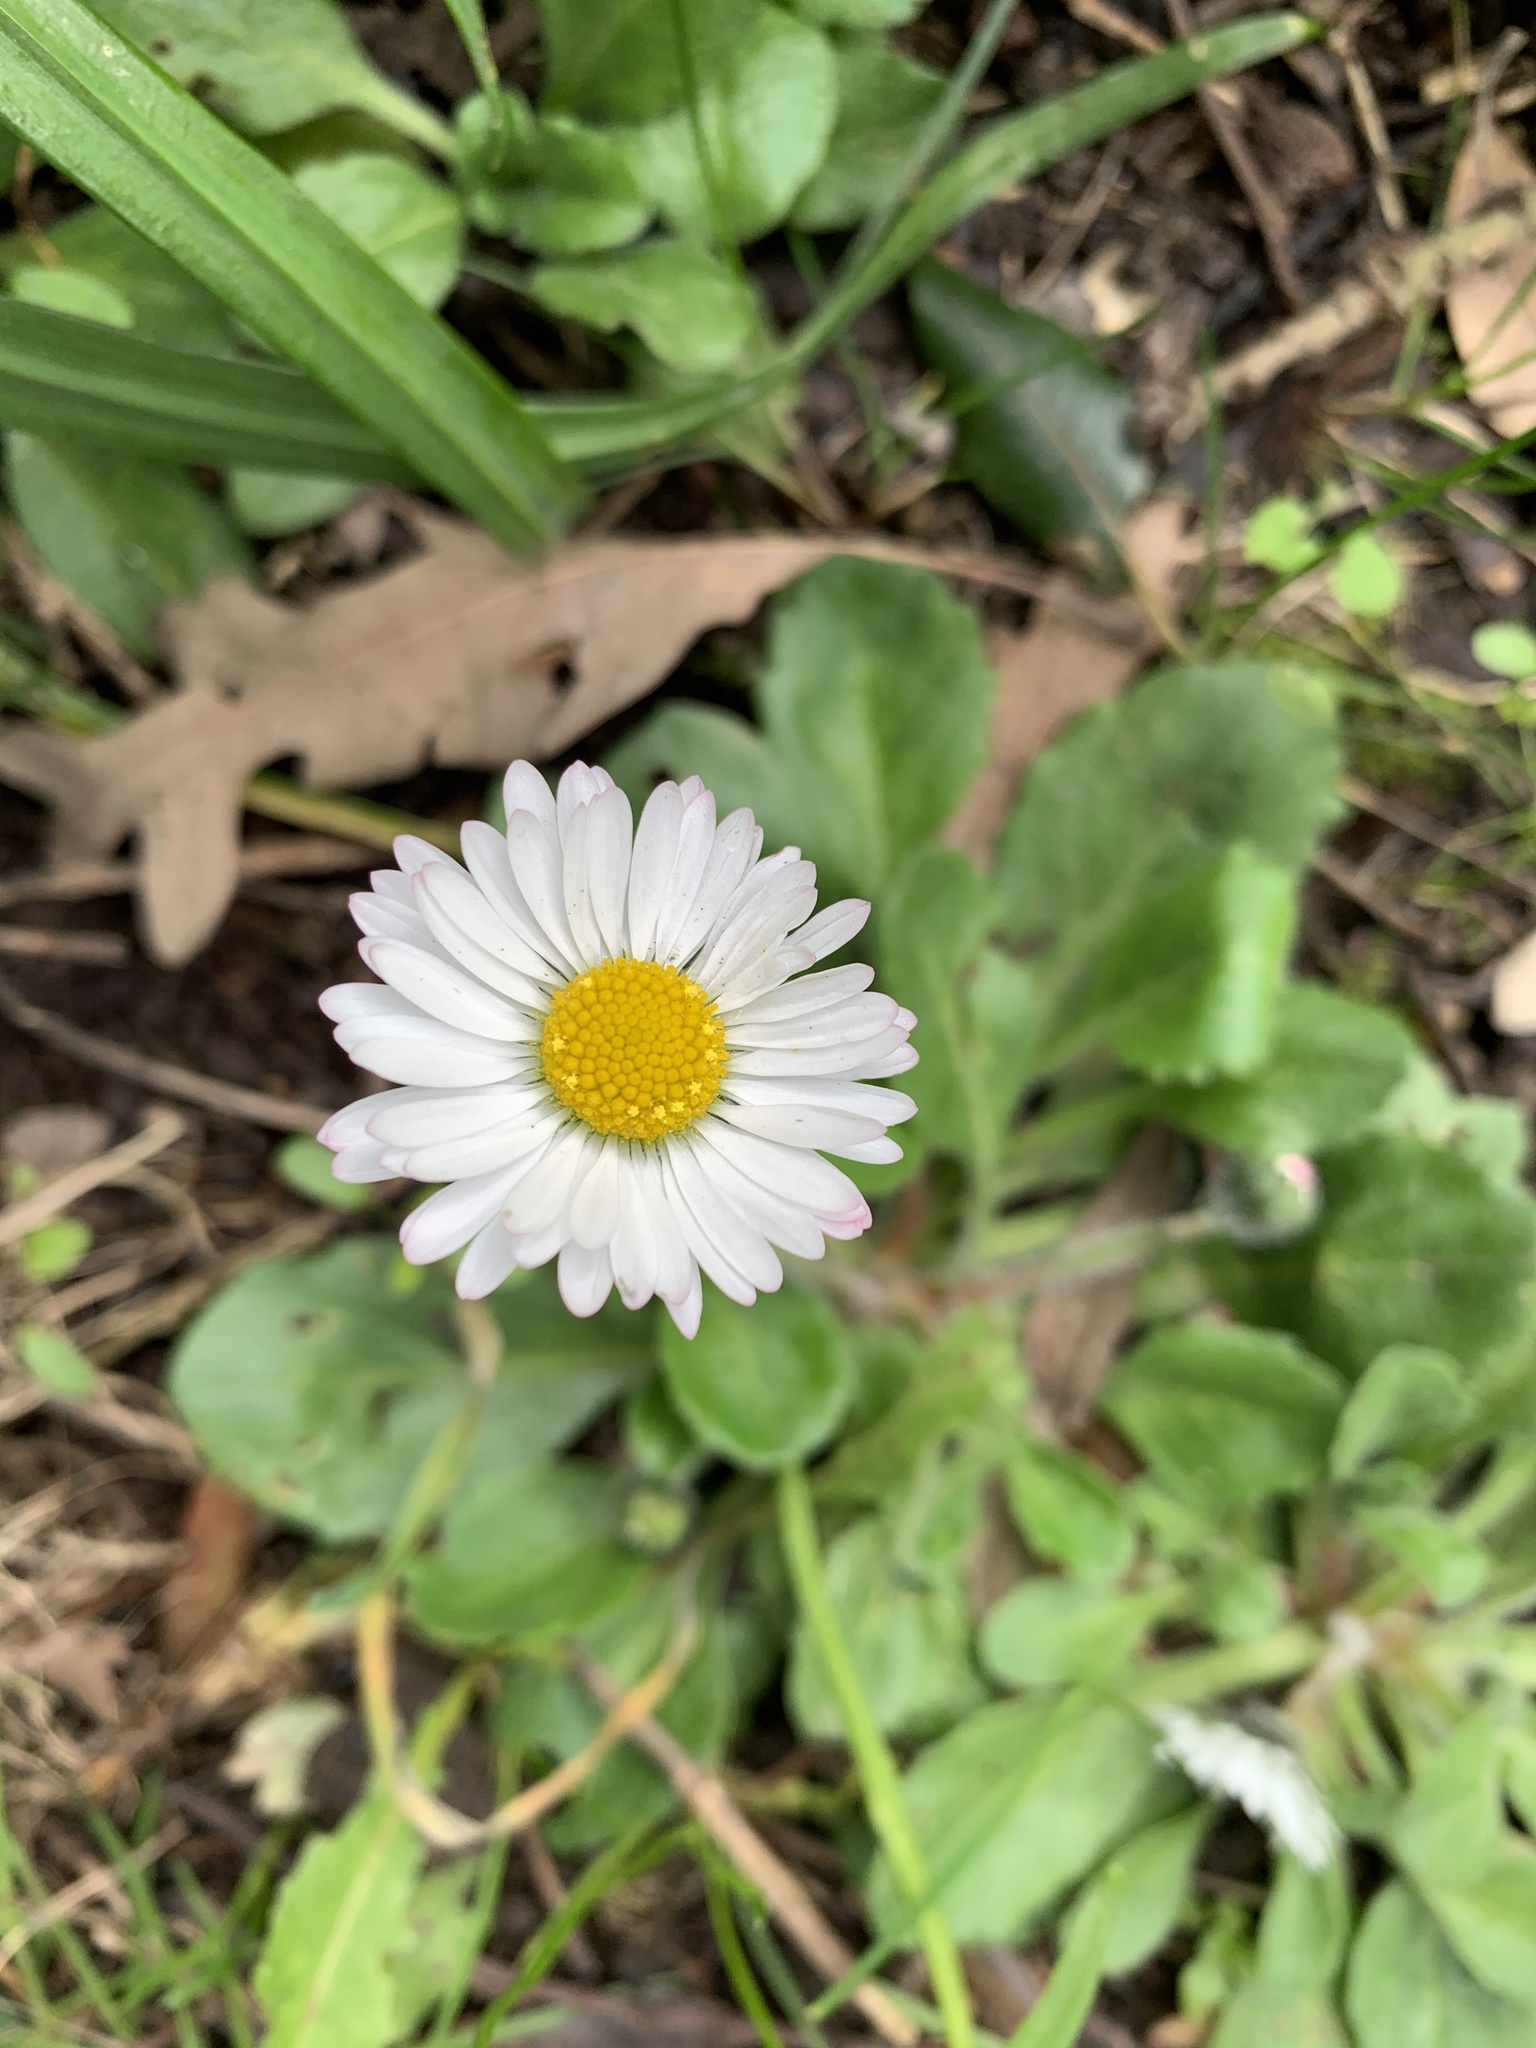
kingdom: Plantae
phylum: Tracheophyta
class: Magnoliopsida
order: Asterales
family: Asteraceae
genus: Bellis
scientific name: Bellis perennis
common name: Lawndaisy
